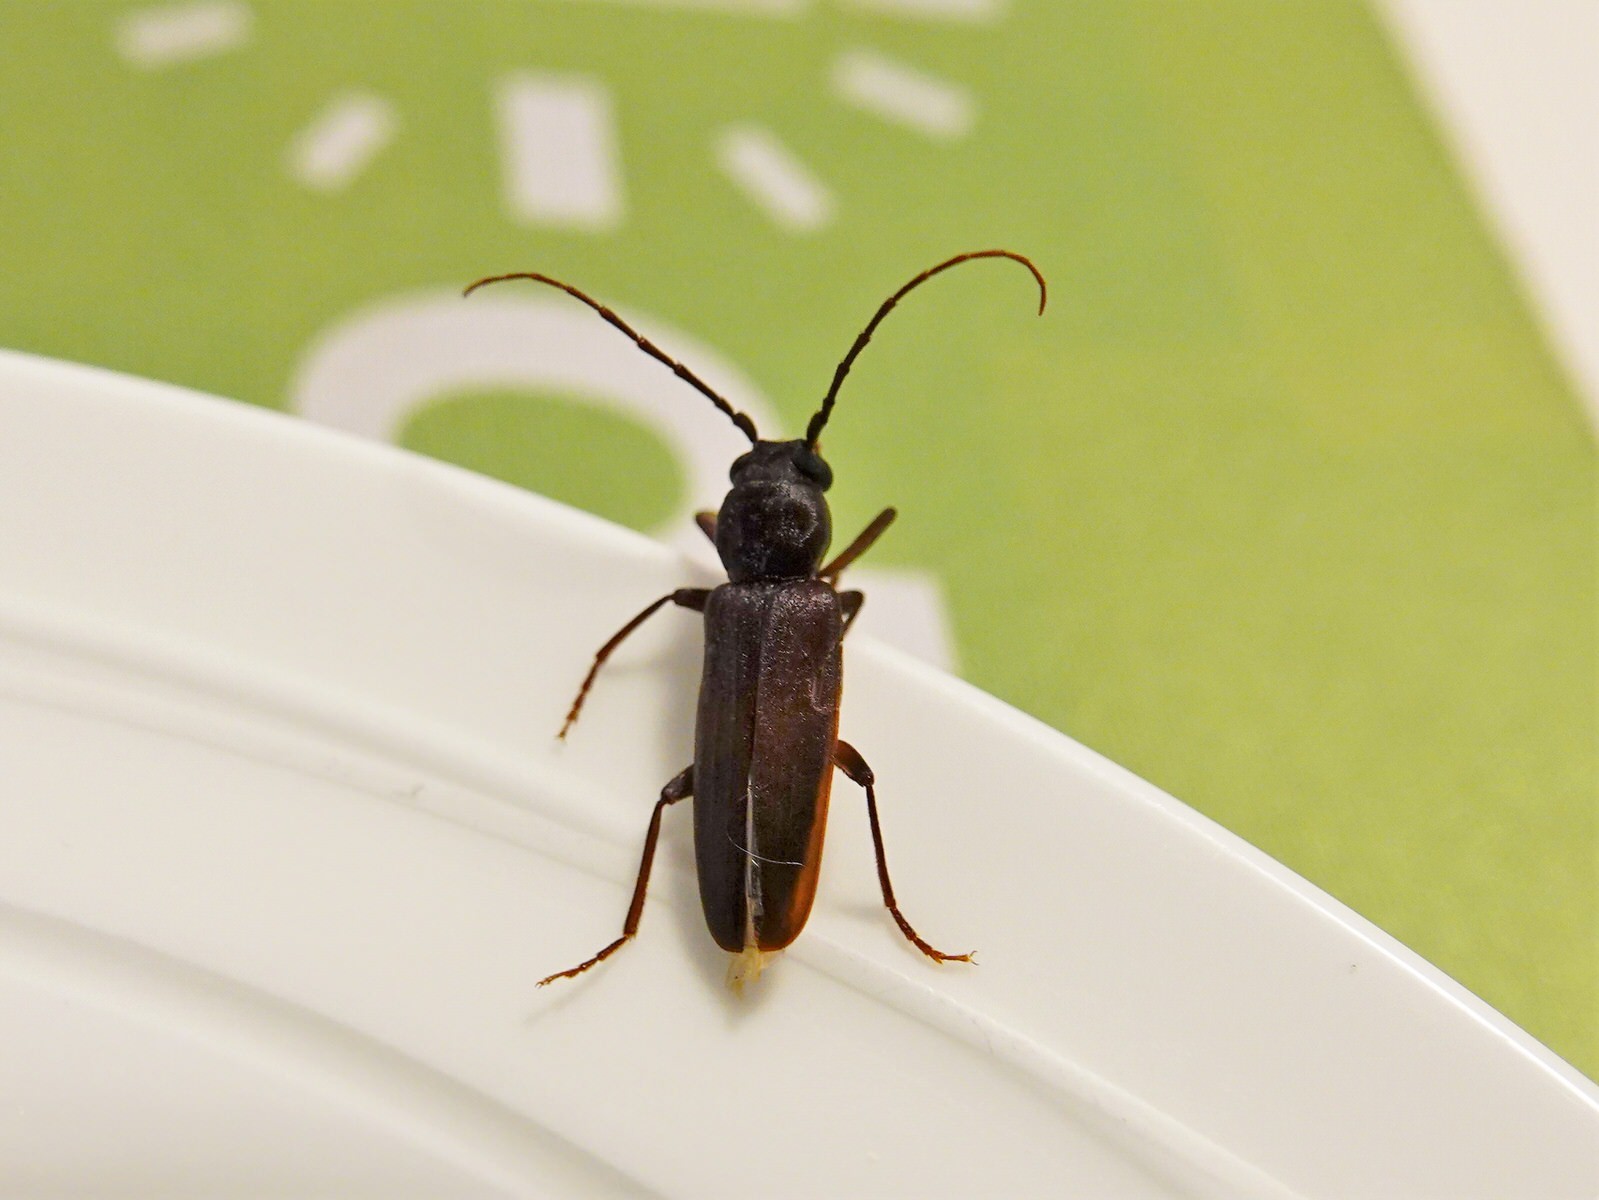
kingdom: Animalia
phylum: Arthropoda
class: Insecta
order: Coleoptera
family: Cerambycidae
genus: Arhopalus
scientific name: Arhopalus ferus
